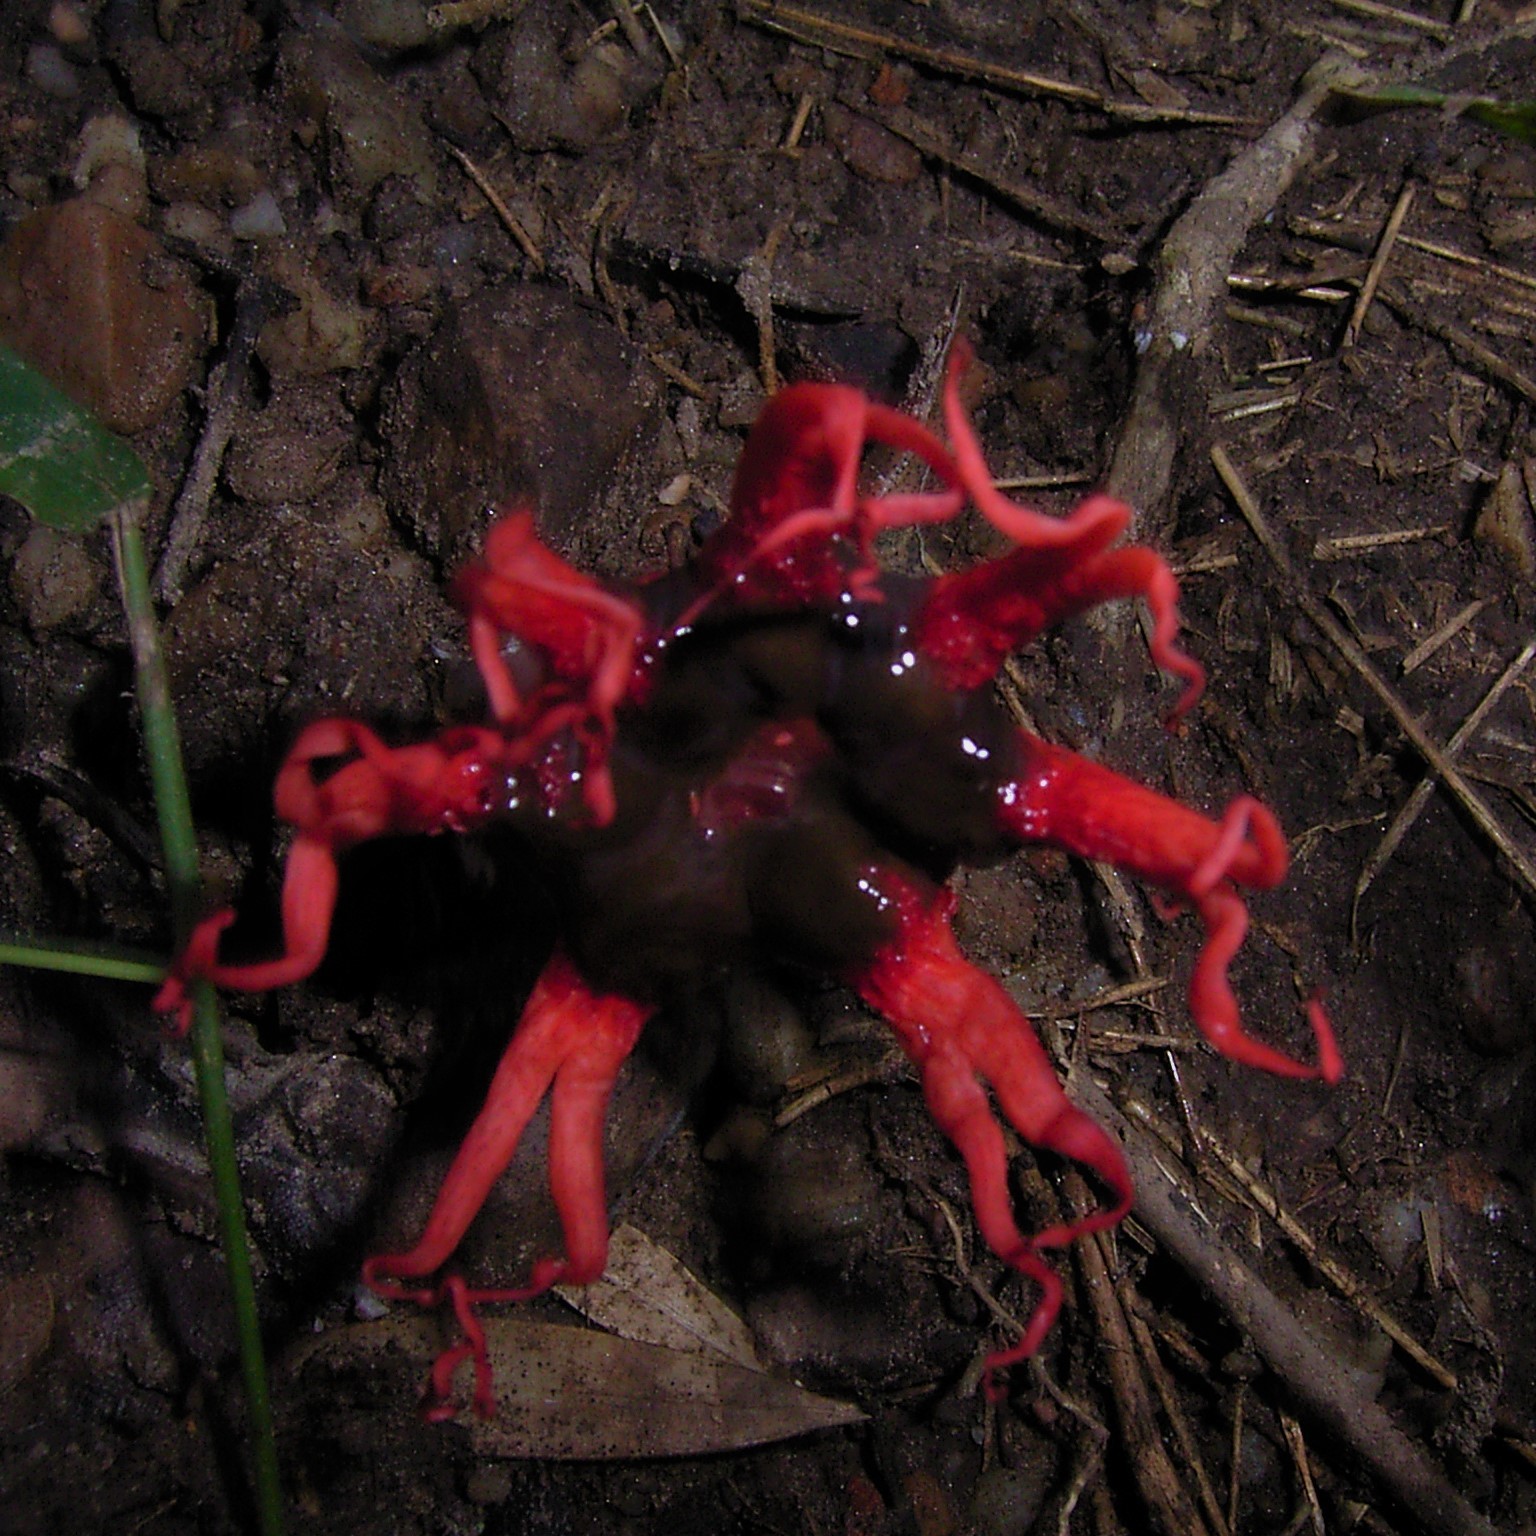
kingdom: Fungi
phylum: Basidiomycota
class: Agaricomycetes
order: Phallales
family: Phallaceae
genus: Aseroe
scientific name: Aseroe rubra
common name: Starfish fungus
